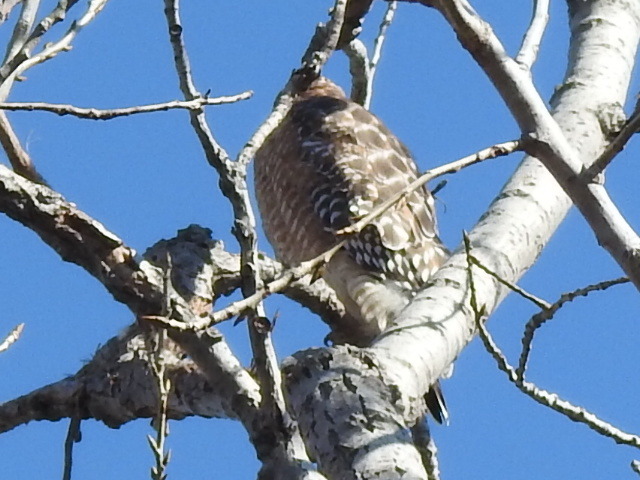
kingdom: Animalia
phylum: Chordata
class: Aves
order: Accipitriformes
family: Accipitridae
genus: Buteo
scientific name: Buteo lineatus
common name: Red-shouldered hawk
